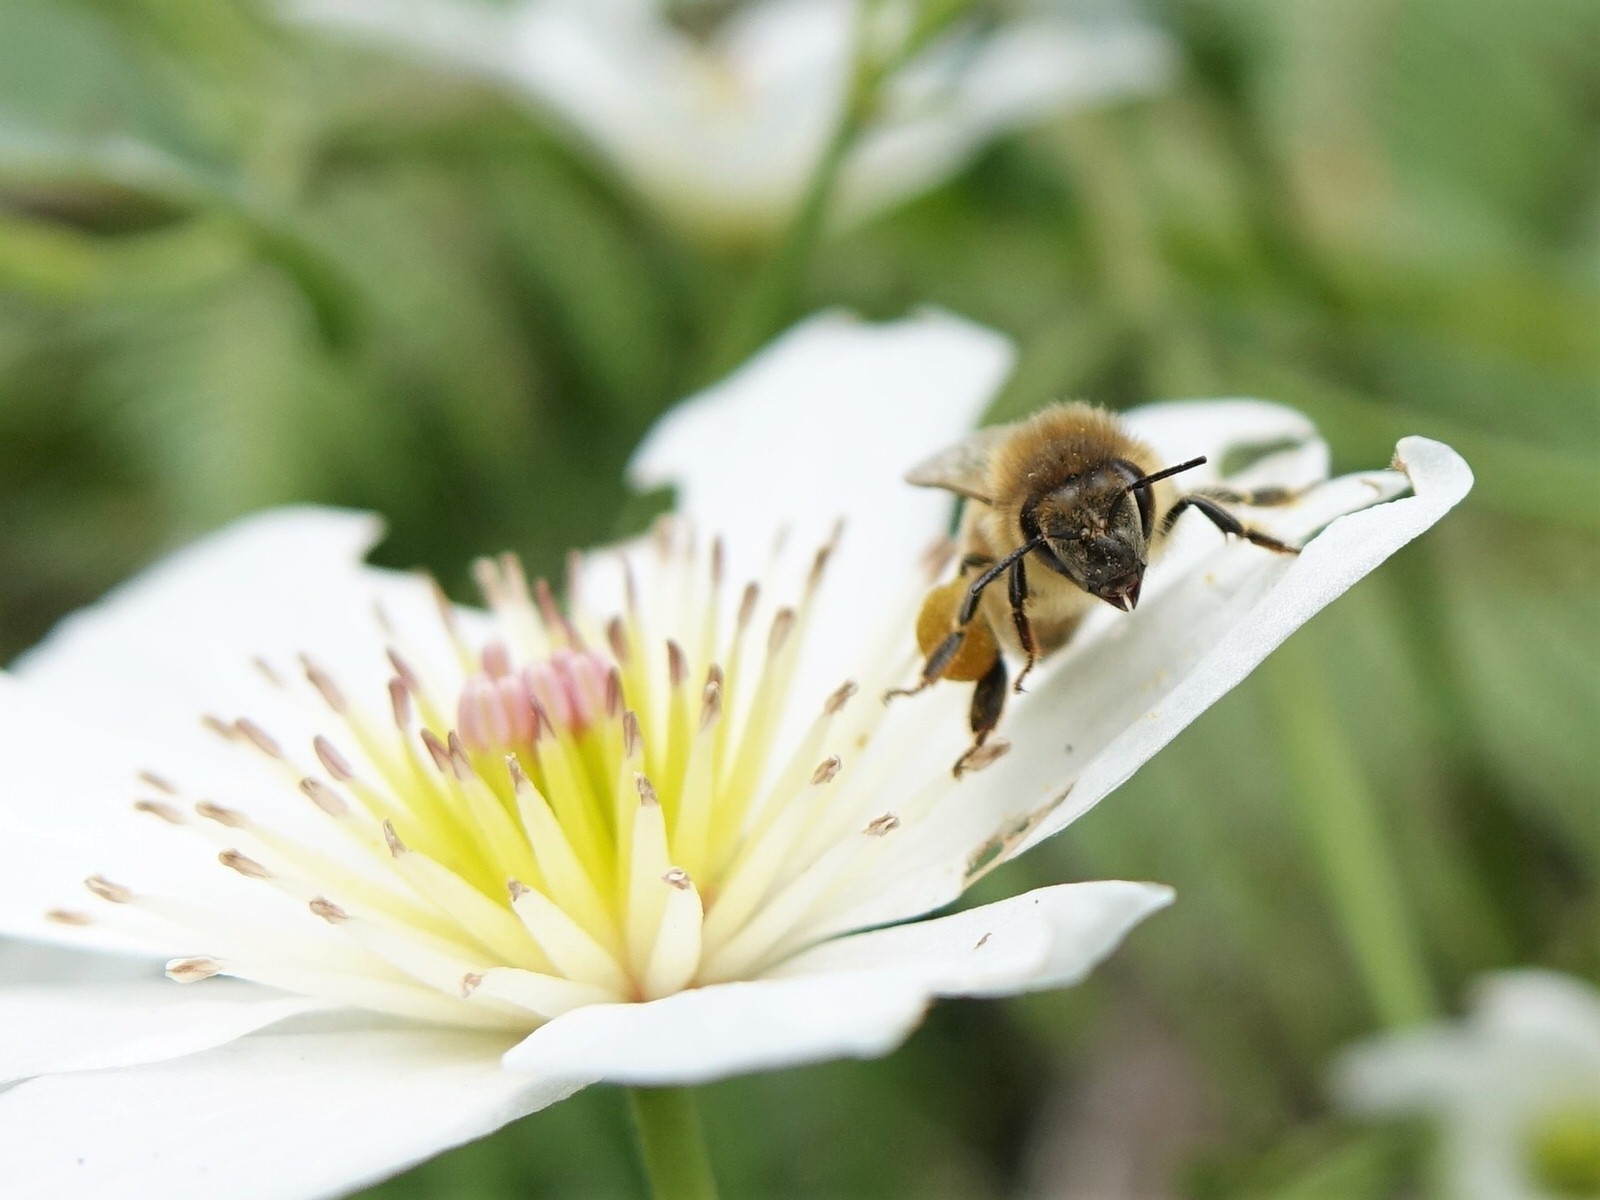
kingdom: Animalia
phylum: Arthropoda
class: Insecta
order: Hymenoptera
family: Apidae
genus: Apis
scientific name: Apis mellifera
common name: Honey bee
